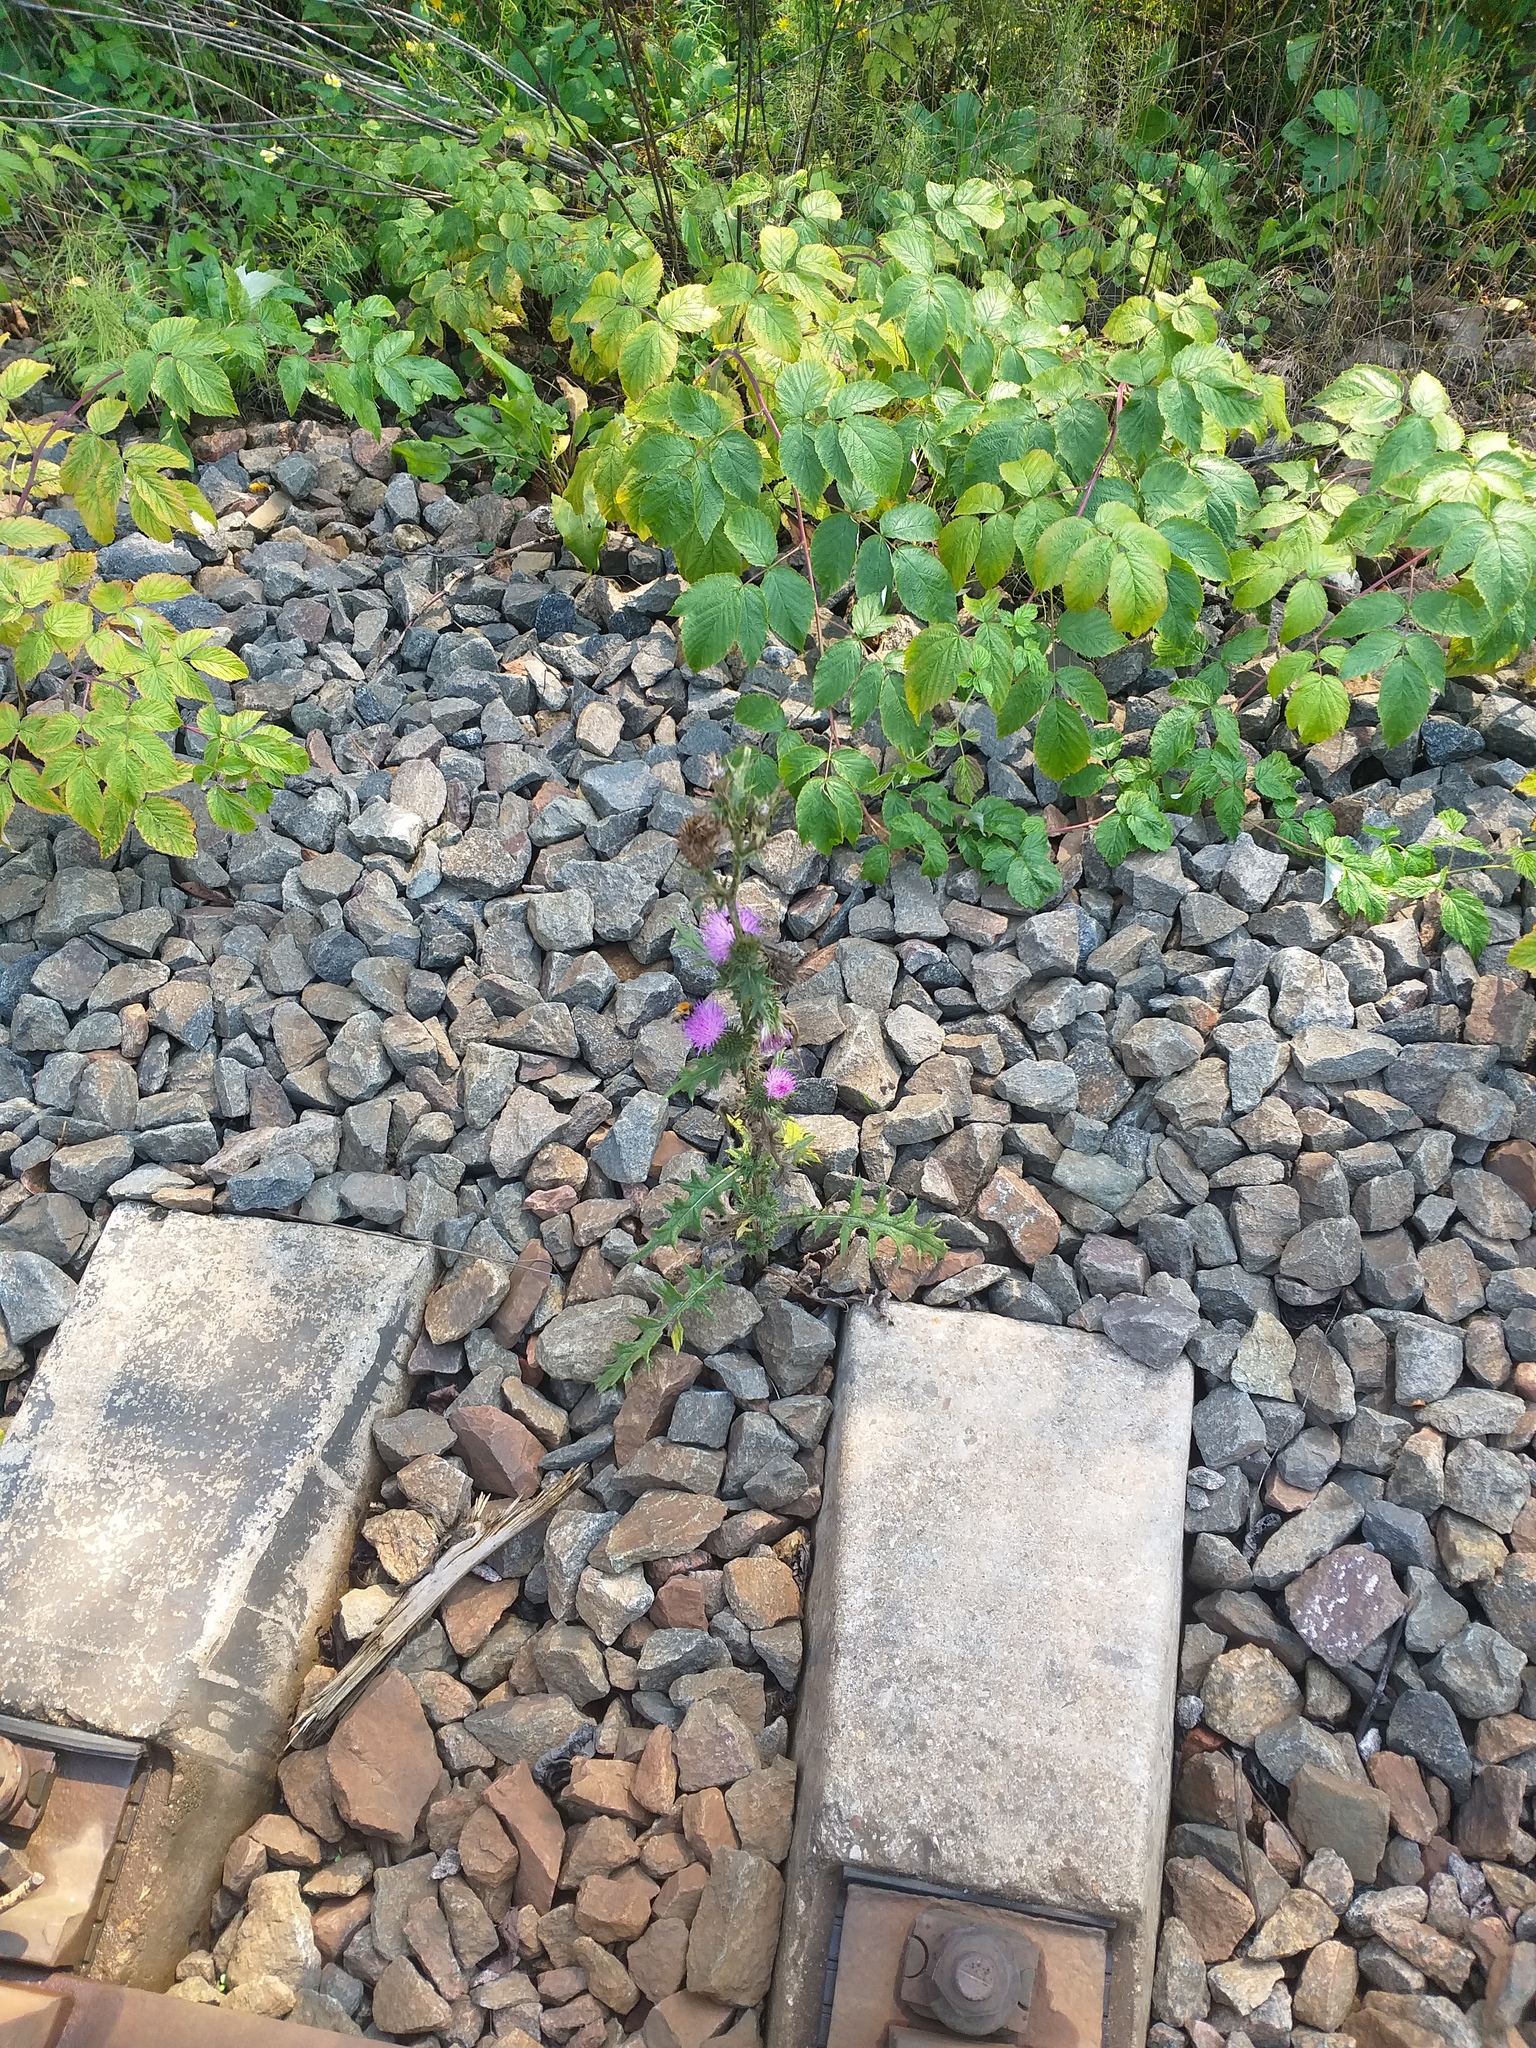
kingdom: Plantae
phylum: Tracheophyta
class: Magnoliopsida
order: Asterales
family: Asteraceae
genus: Cirsium
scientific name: Cirsium vulgare
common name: Bull thistle
